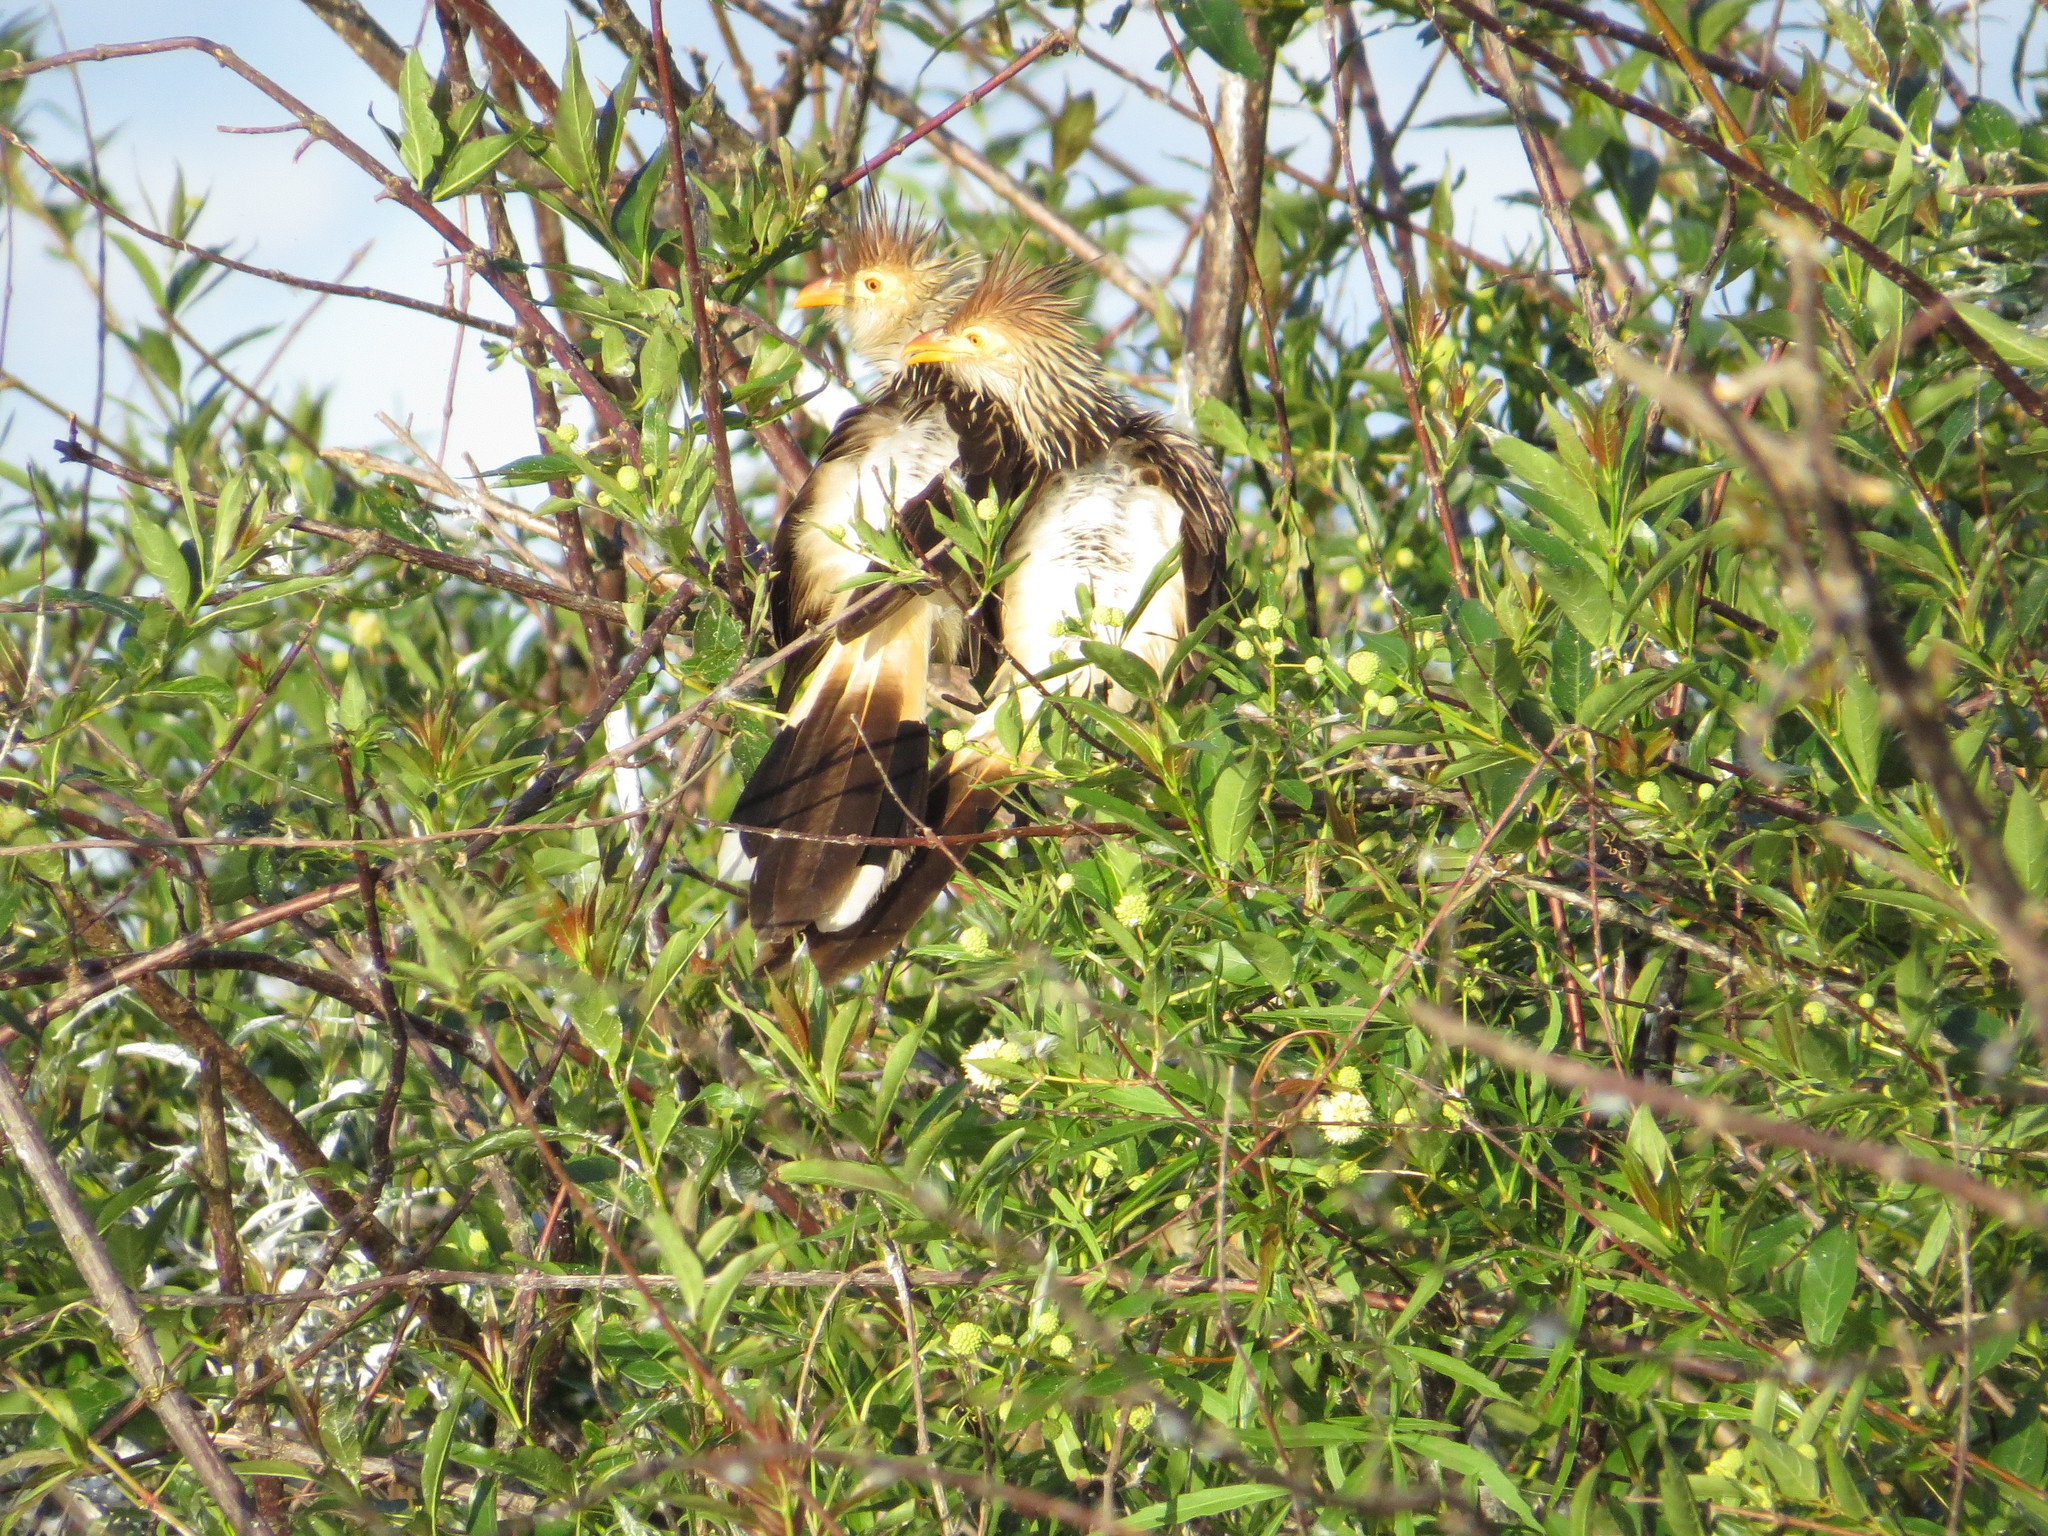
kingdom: Animalia
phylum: Chordata
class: Aves
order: Cuculiformes
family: Cuculidae
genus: Guira
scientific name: Guira guira
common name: Guira cuckoo
